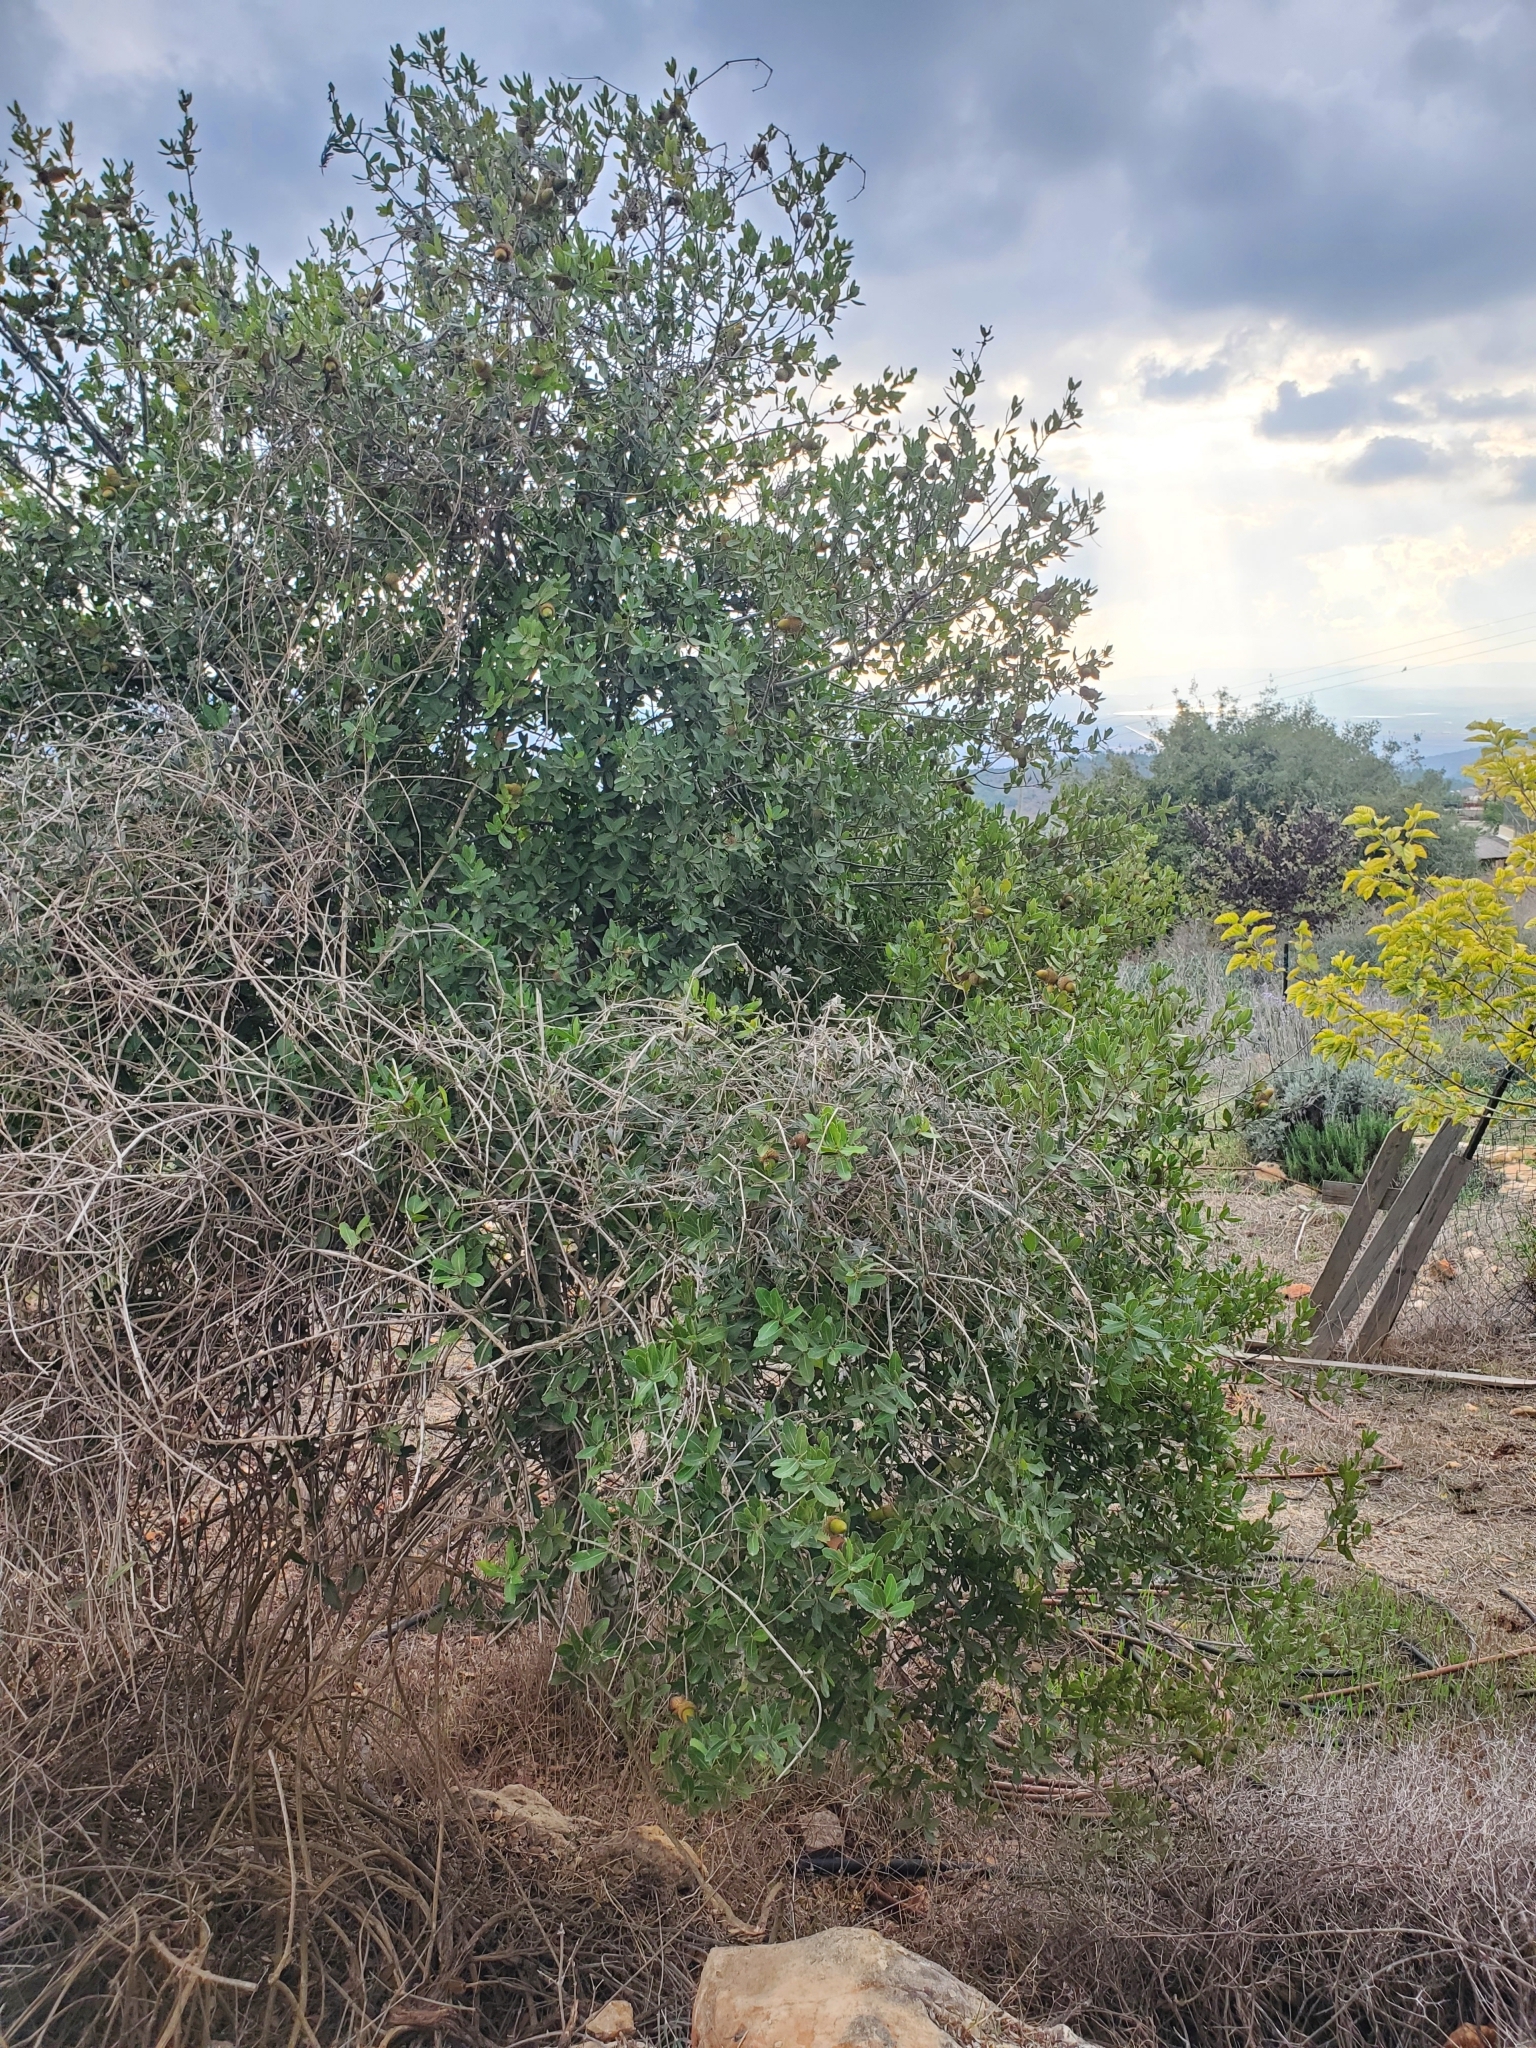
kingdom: Plantae
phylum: Tracheophyta
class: Magnoliopsida
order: Fagales
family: Fagaceae
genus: Quercus
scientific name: Quercus coccifera
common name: Kermes oak
